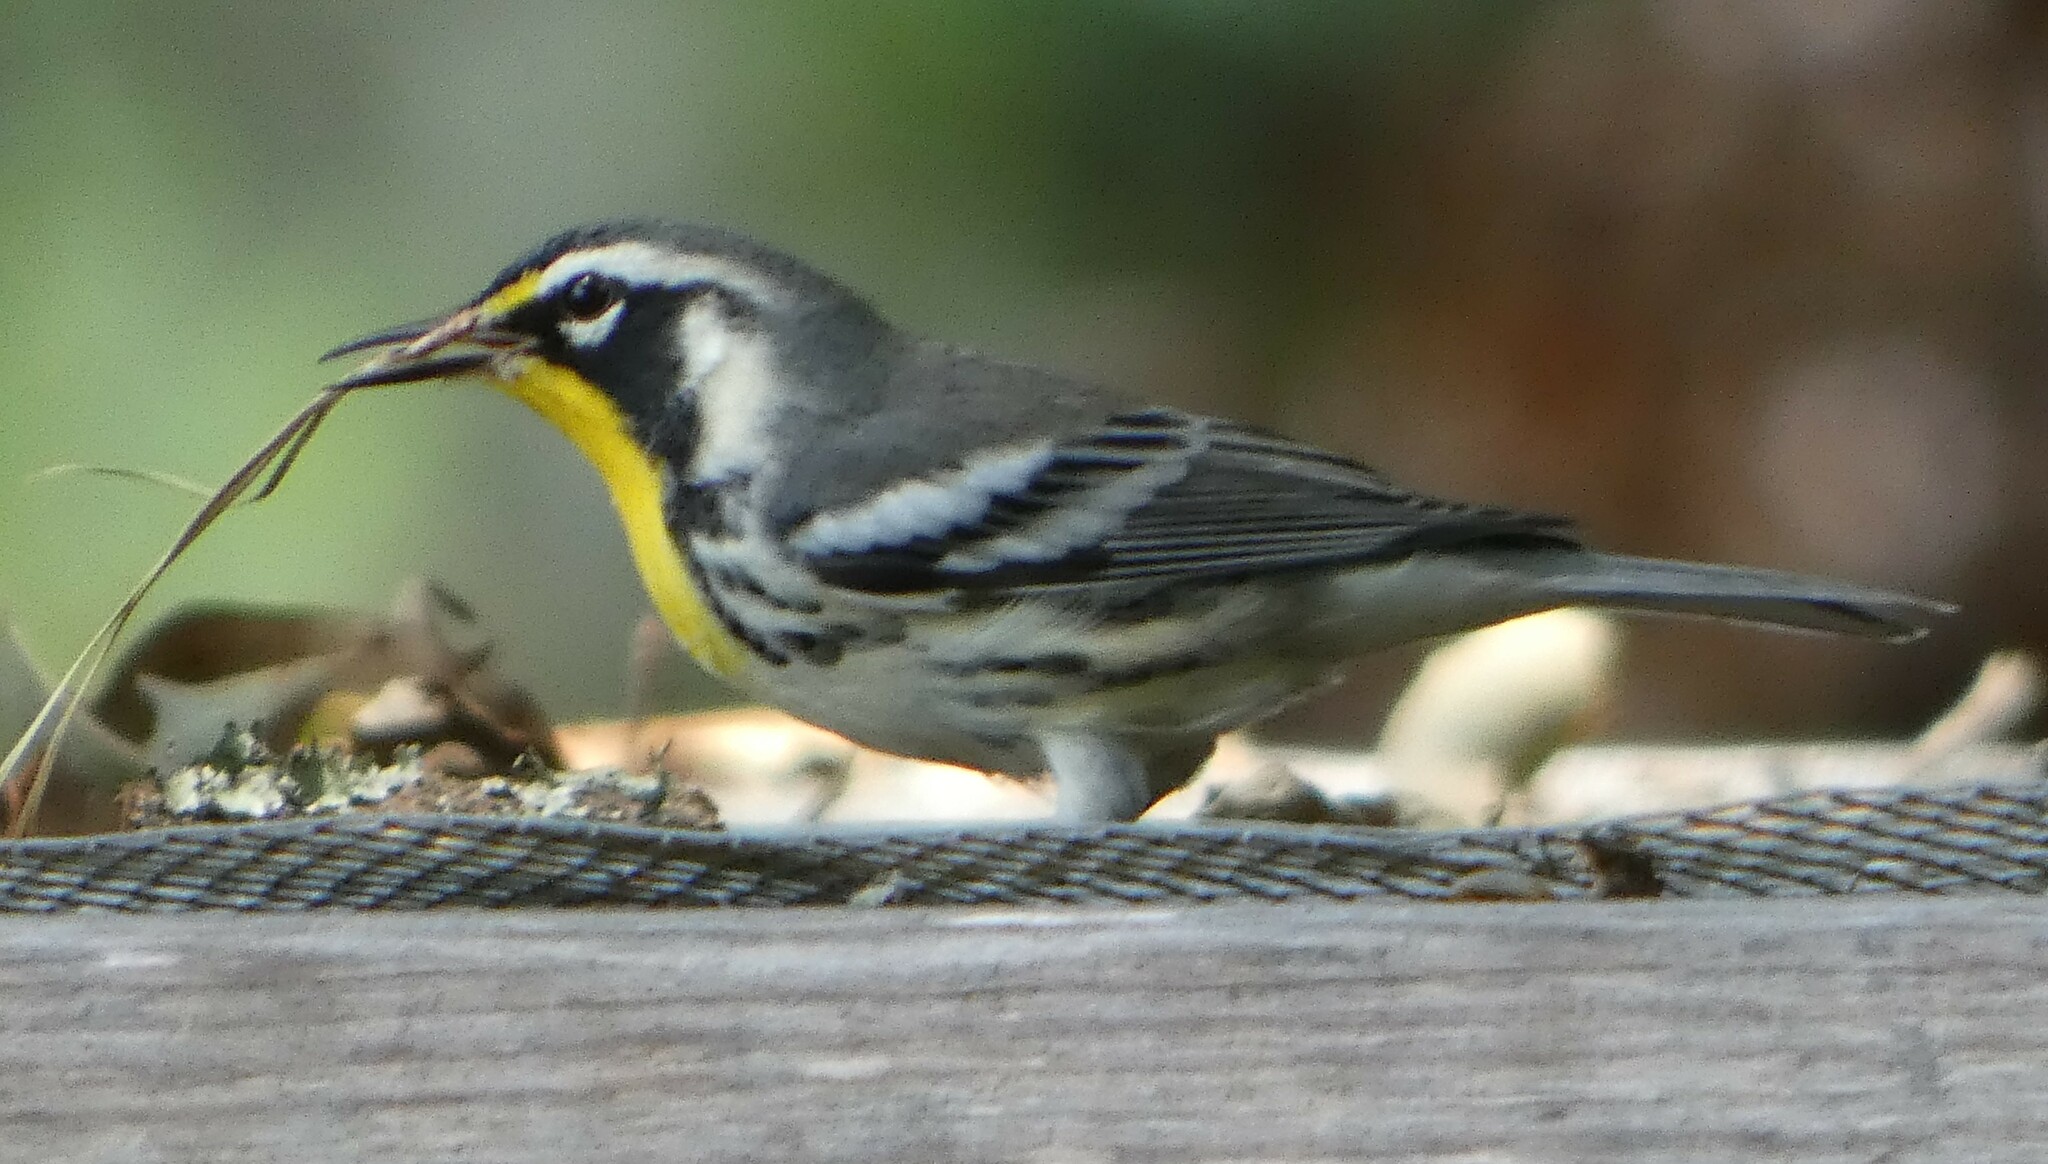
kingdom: Animalia
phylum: Chordata
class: Aves
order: Passeriformes
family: Parulidae
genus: Setophaga
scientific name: Setophaga dominica
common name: Yellow-throated warbler
